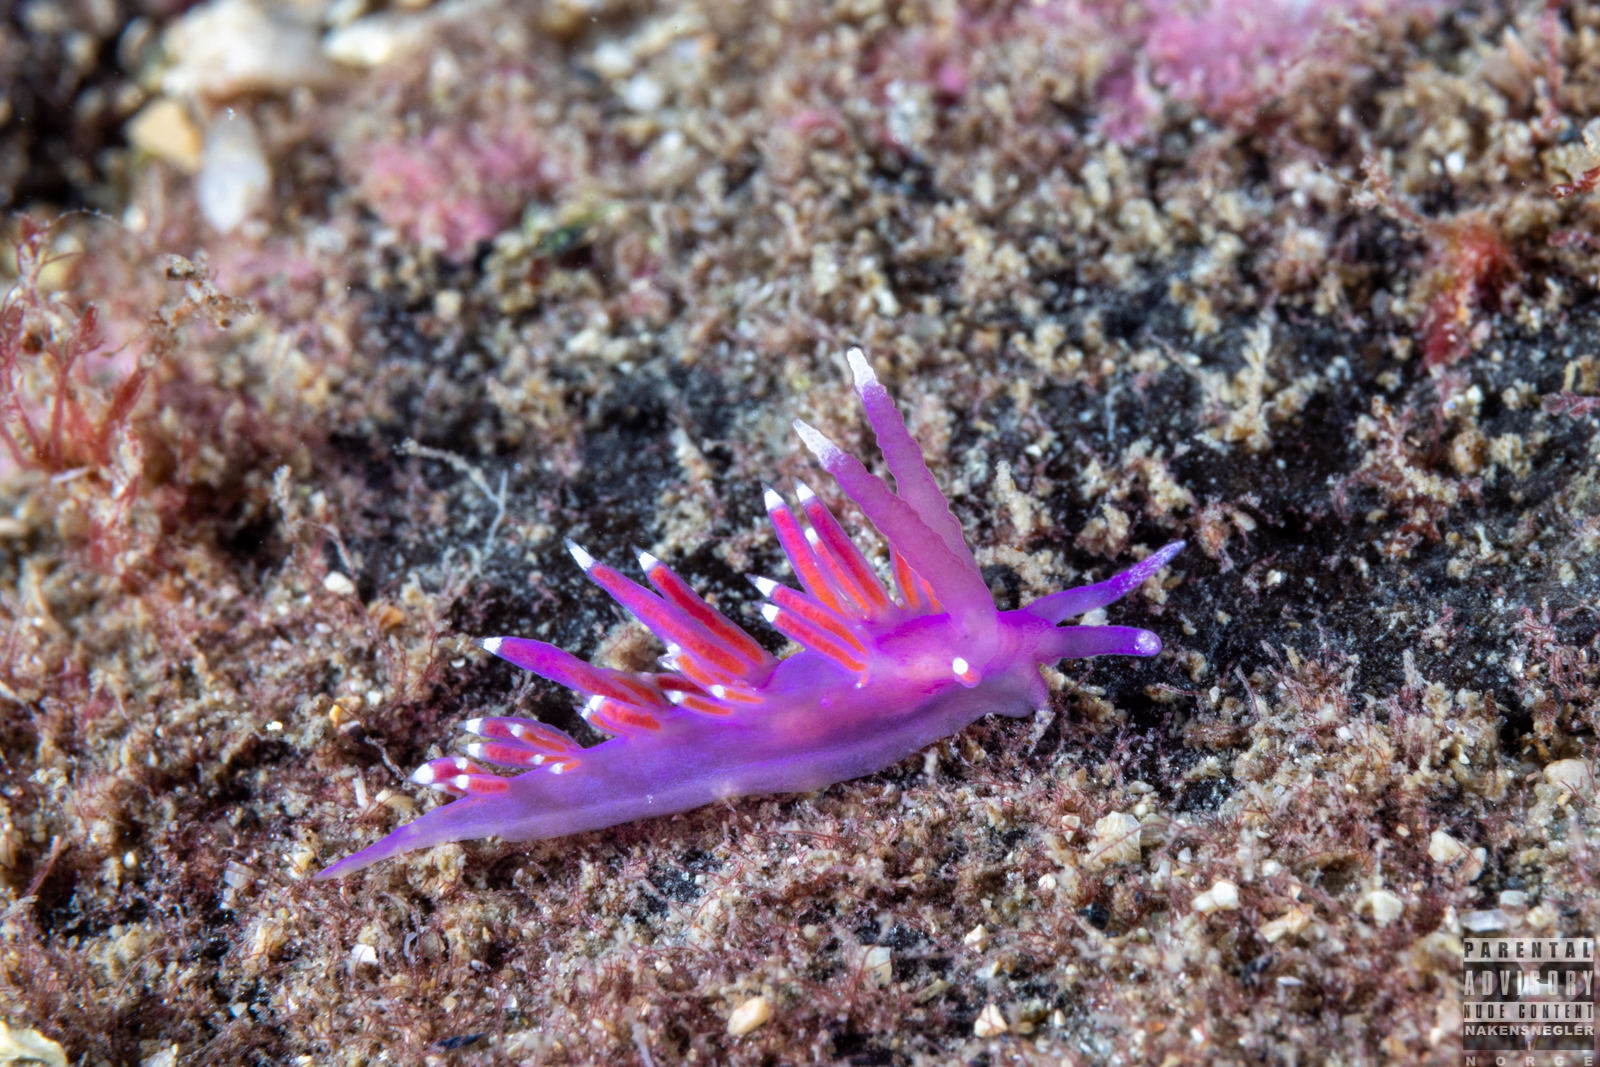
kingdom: Animalia
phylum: Mollusca
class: Gastropoda
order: Nudibranchia
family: Flabellinidae
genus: Edmundsella
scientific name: Edmundsella pedata
